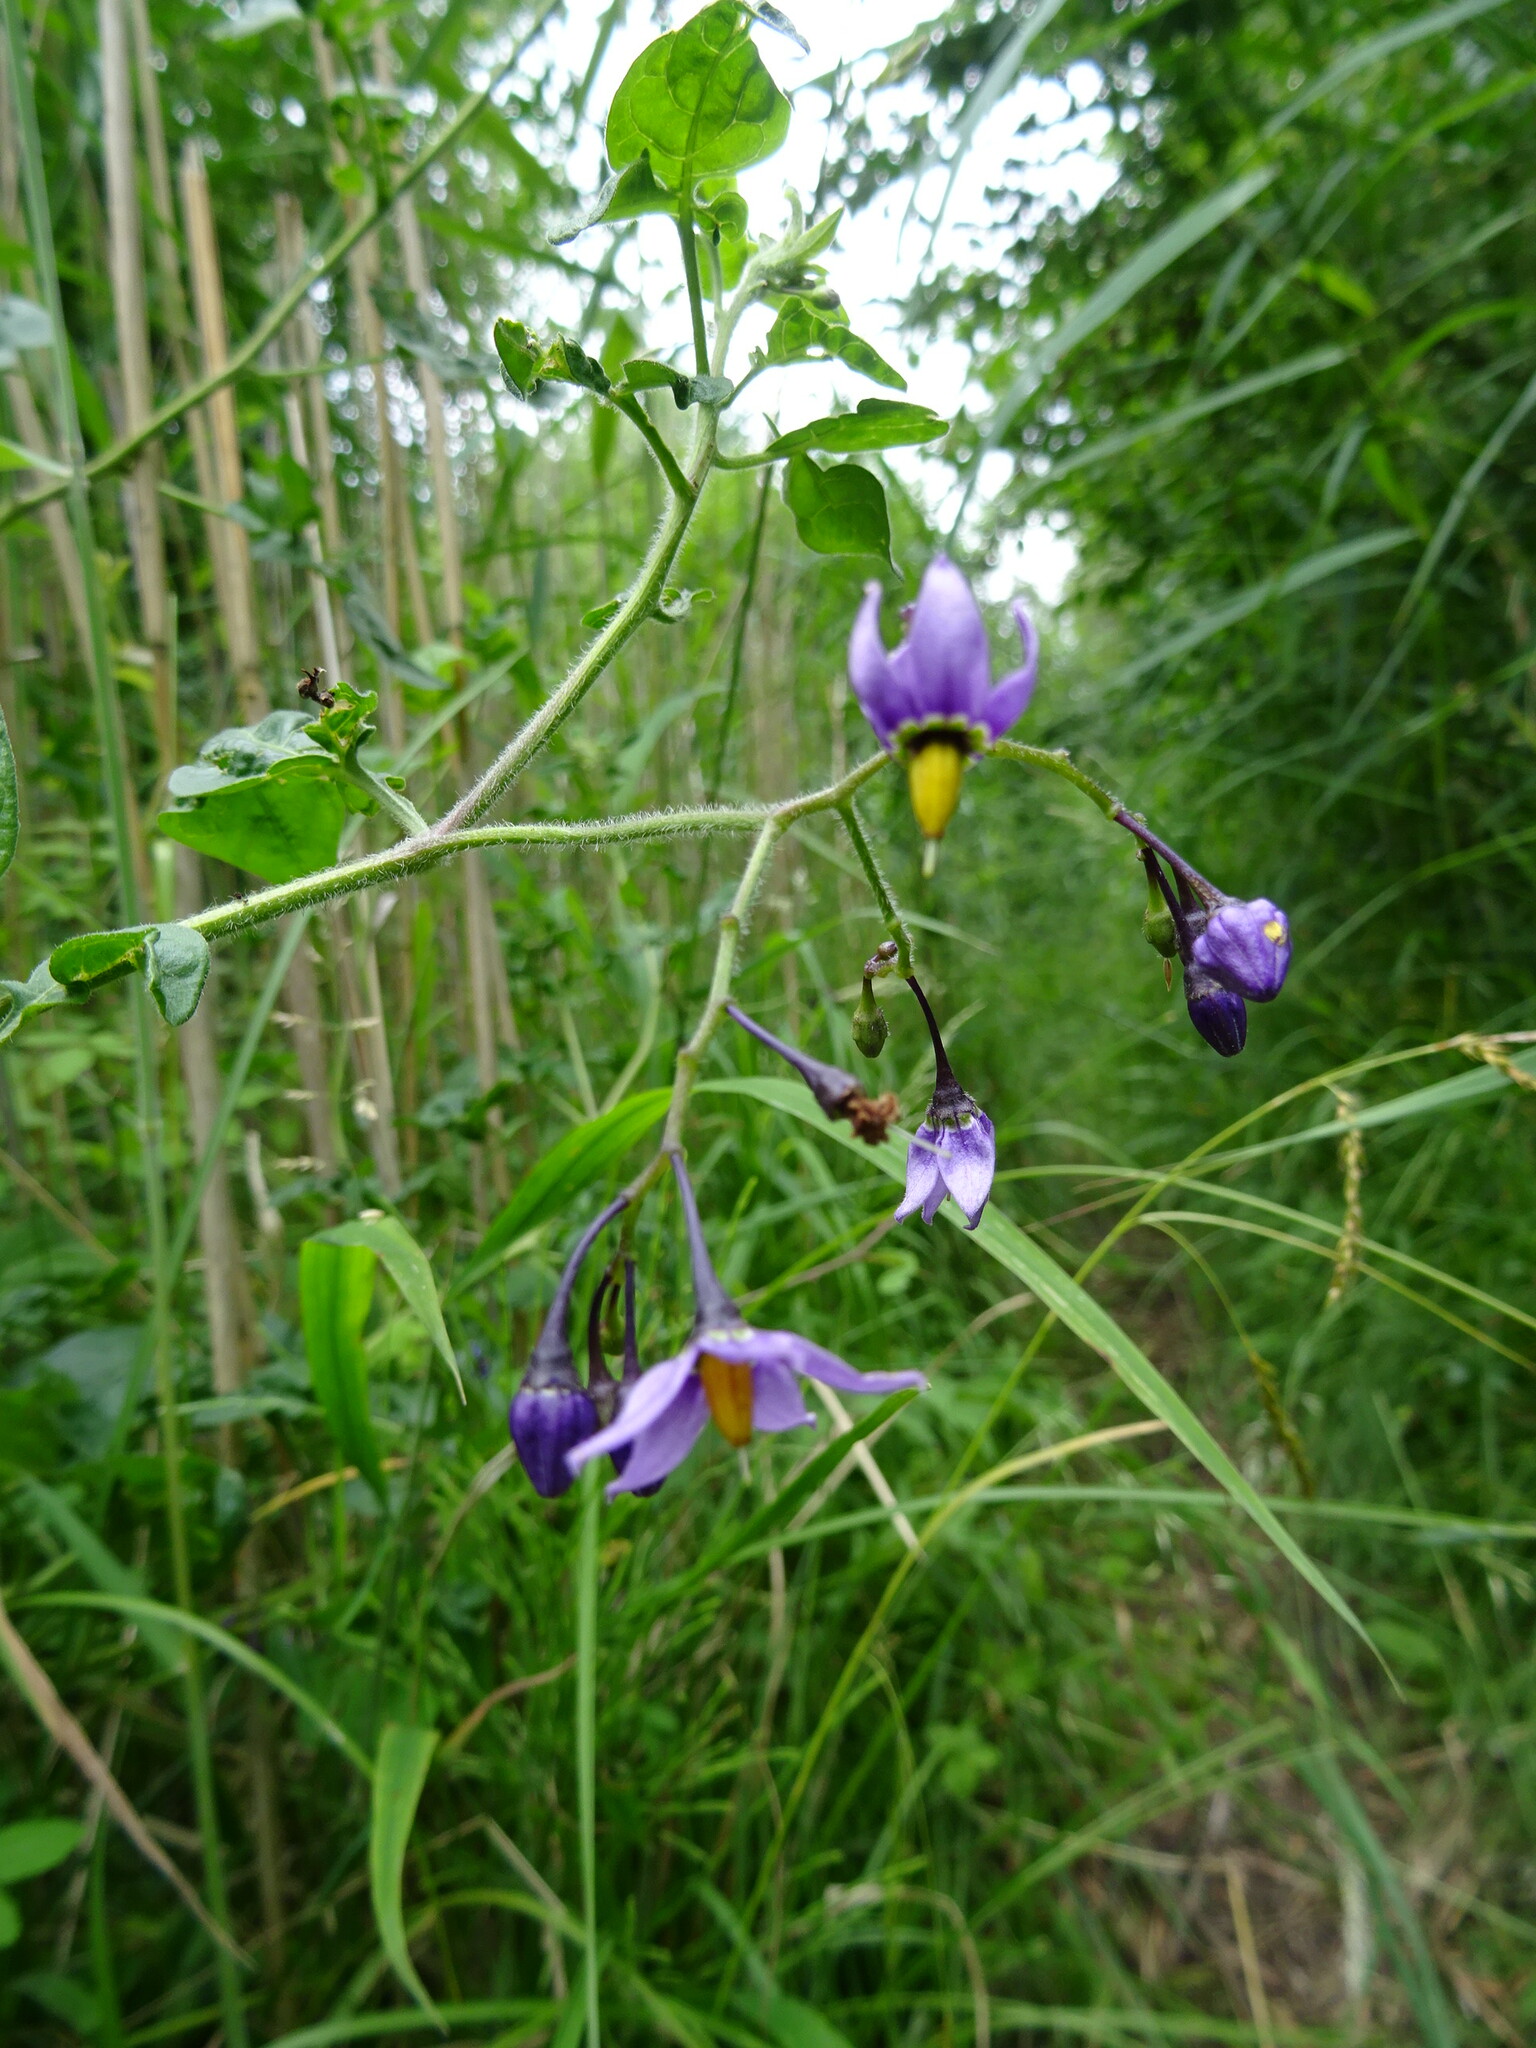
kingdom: Plantae
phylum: Tracheophyta
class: Magnoliopsida
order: Solanales
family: Solanaceae
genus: Solanum
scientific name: Solanum dulcamara
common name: Climbing nightshade
